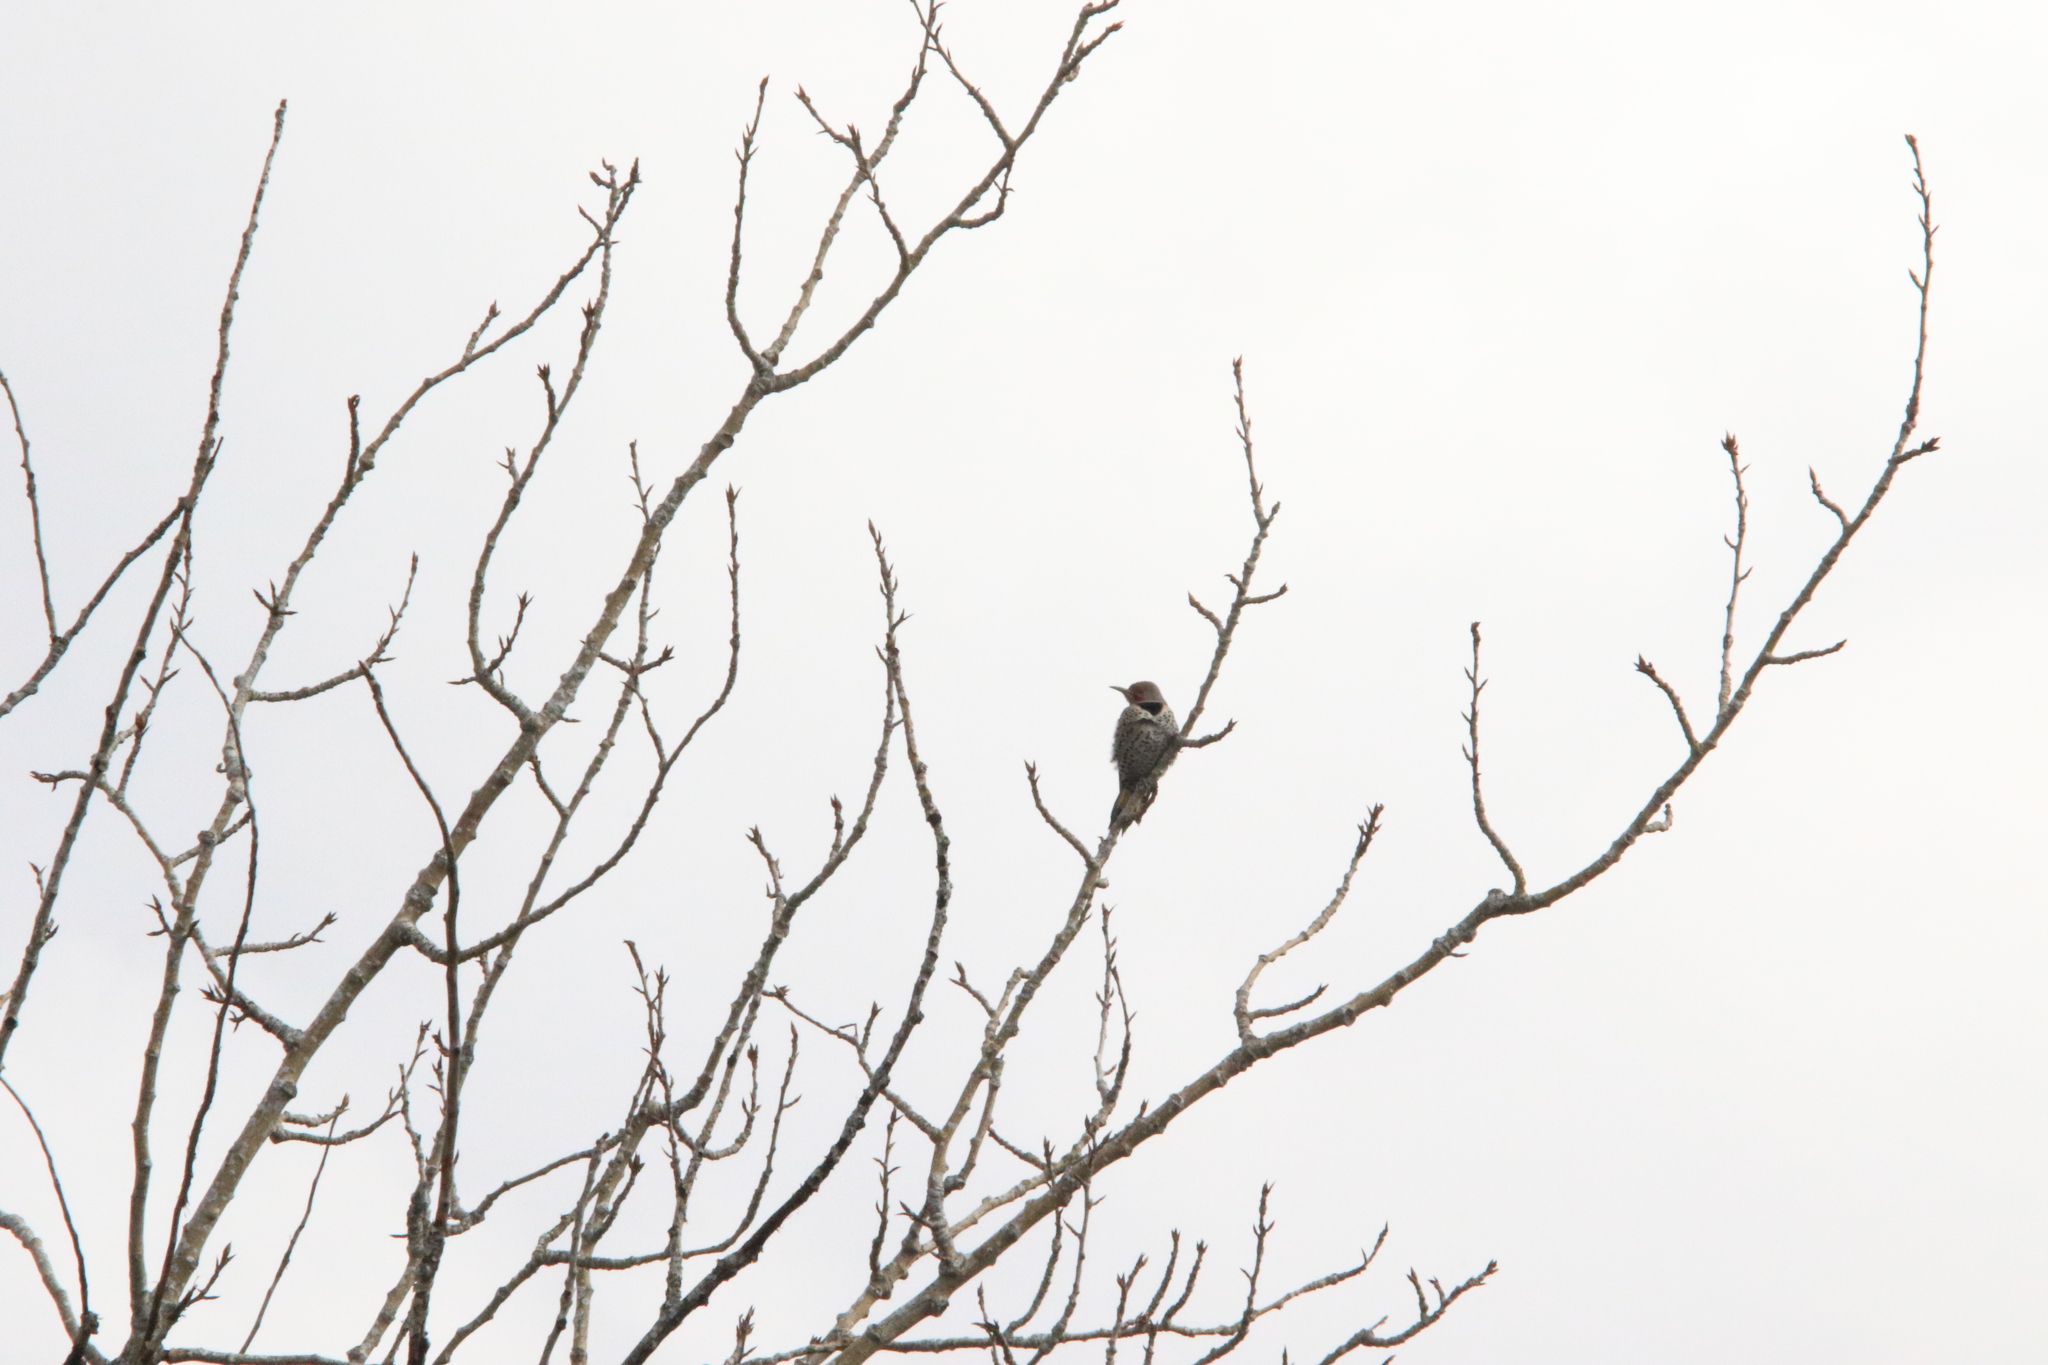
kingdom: Animalia
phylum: Chordata
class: Aves
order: Piciformes
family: Picidae
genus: Colaptes
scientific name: Colaptes auratus
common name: Northern flicker
